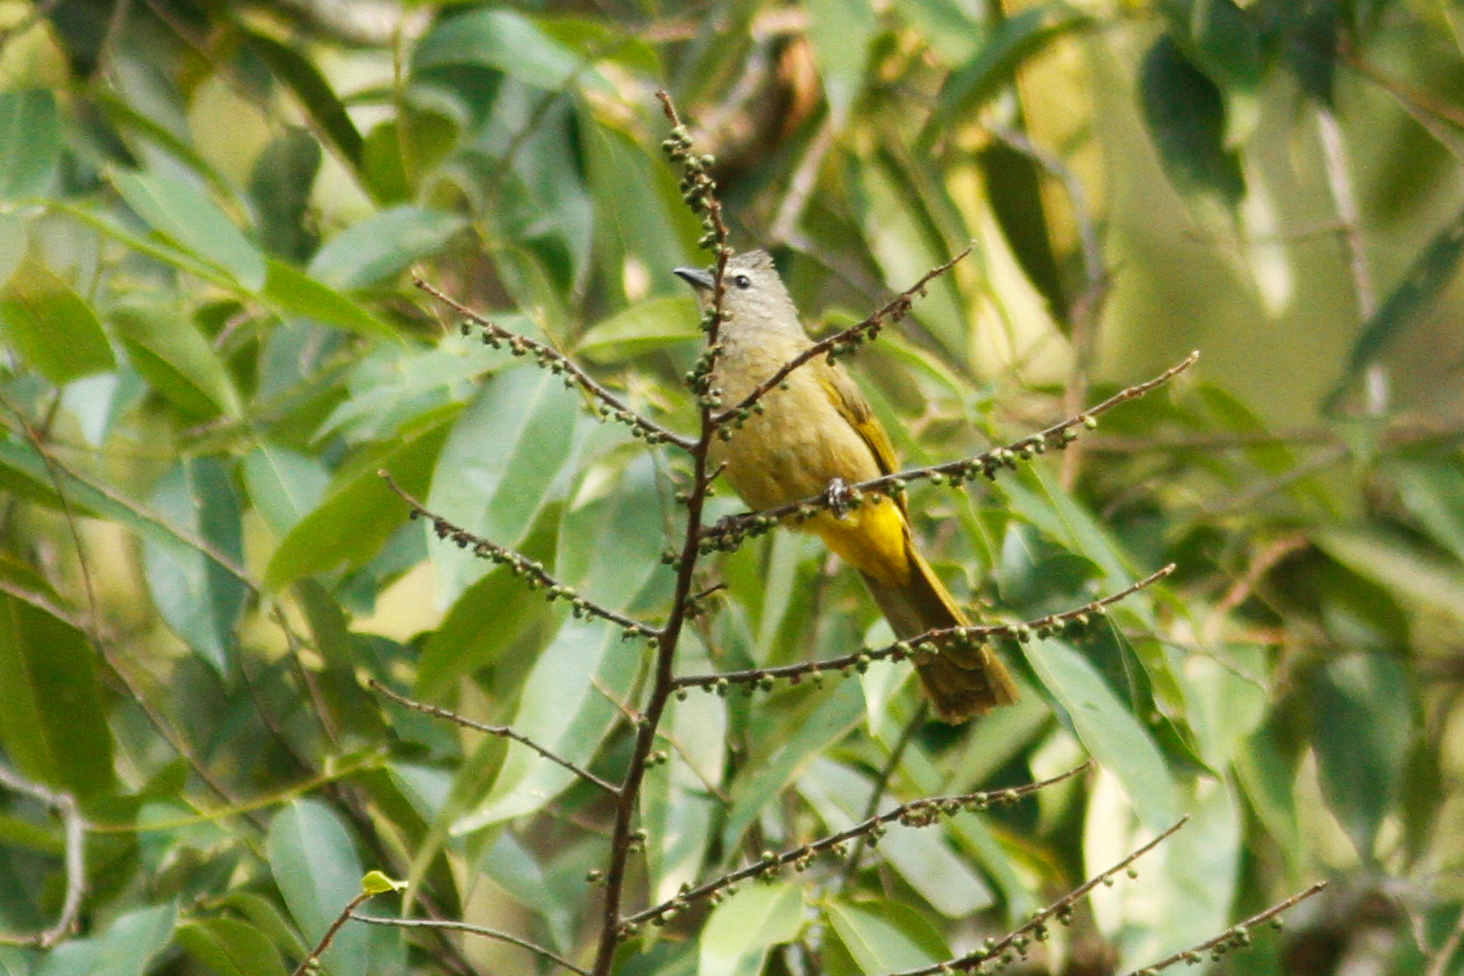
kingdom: Animalia
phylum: Chordata
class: Aves
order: Passeriformes
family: Pycnonotidae
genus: Pycnonotus
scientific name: Pycnonotus flavescens
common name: Flavescent bulbul
